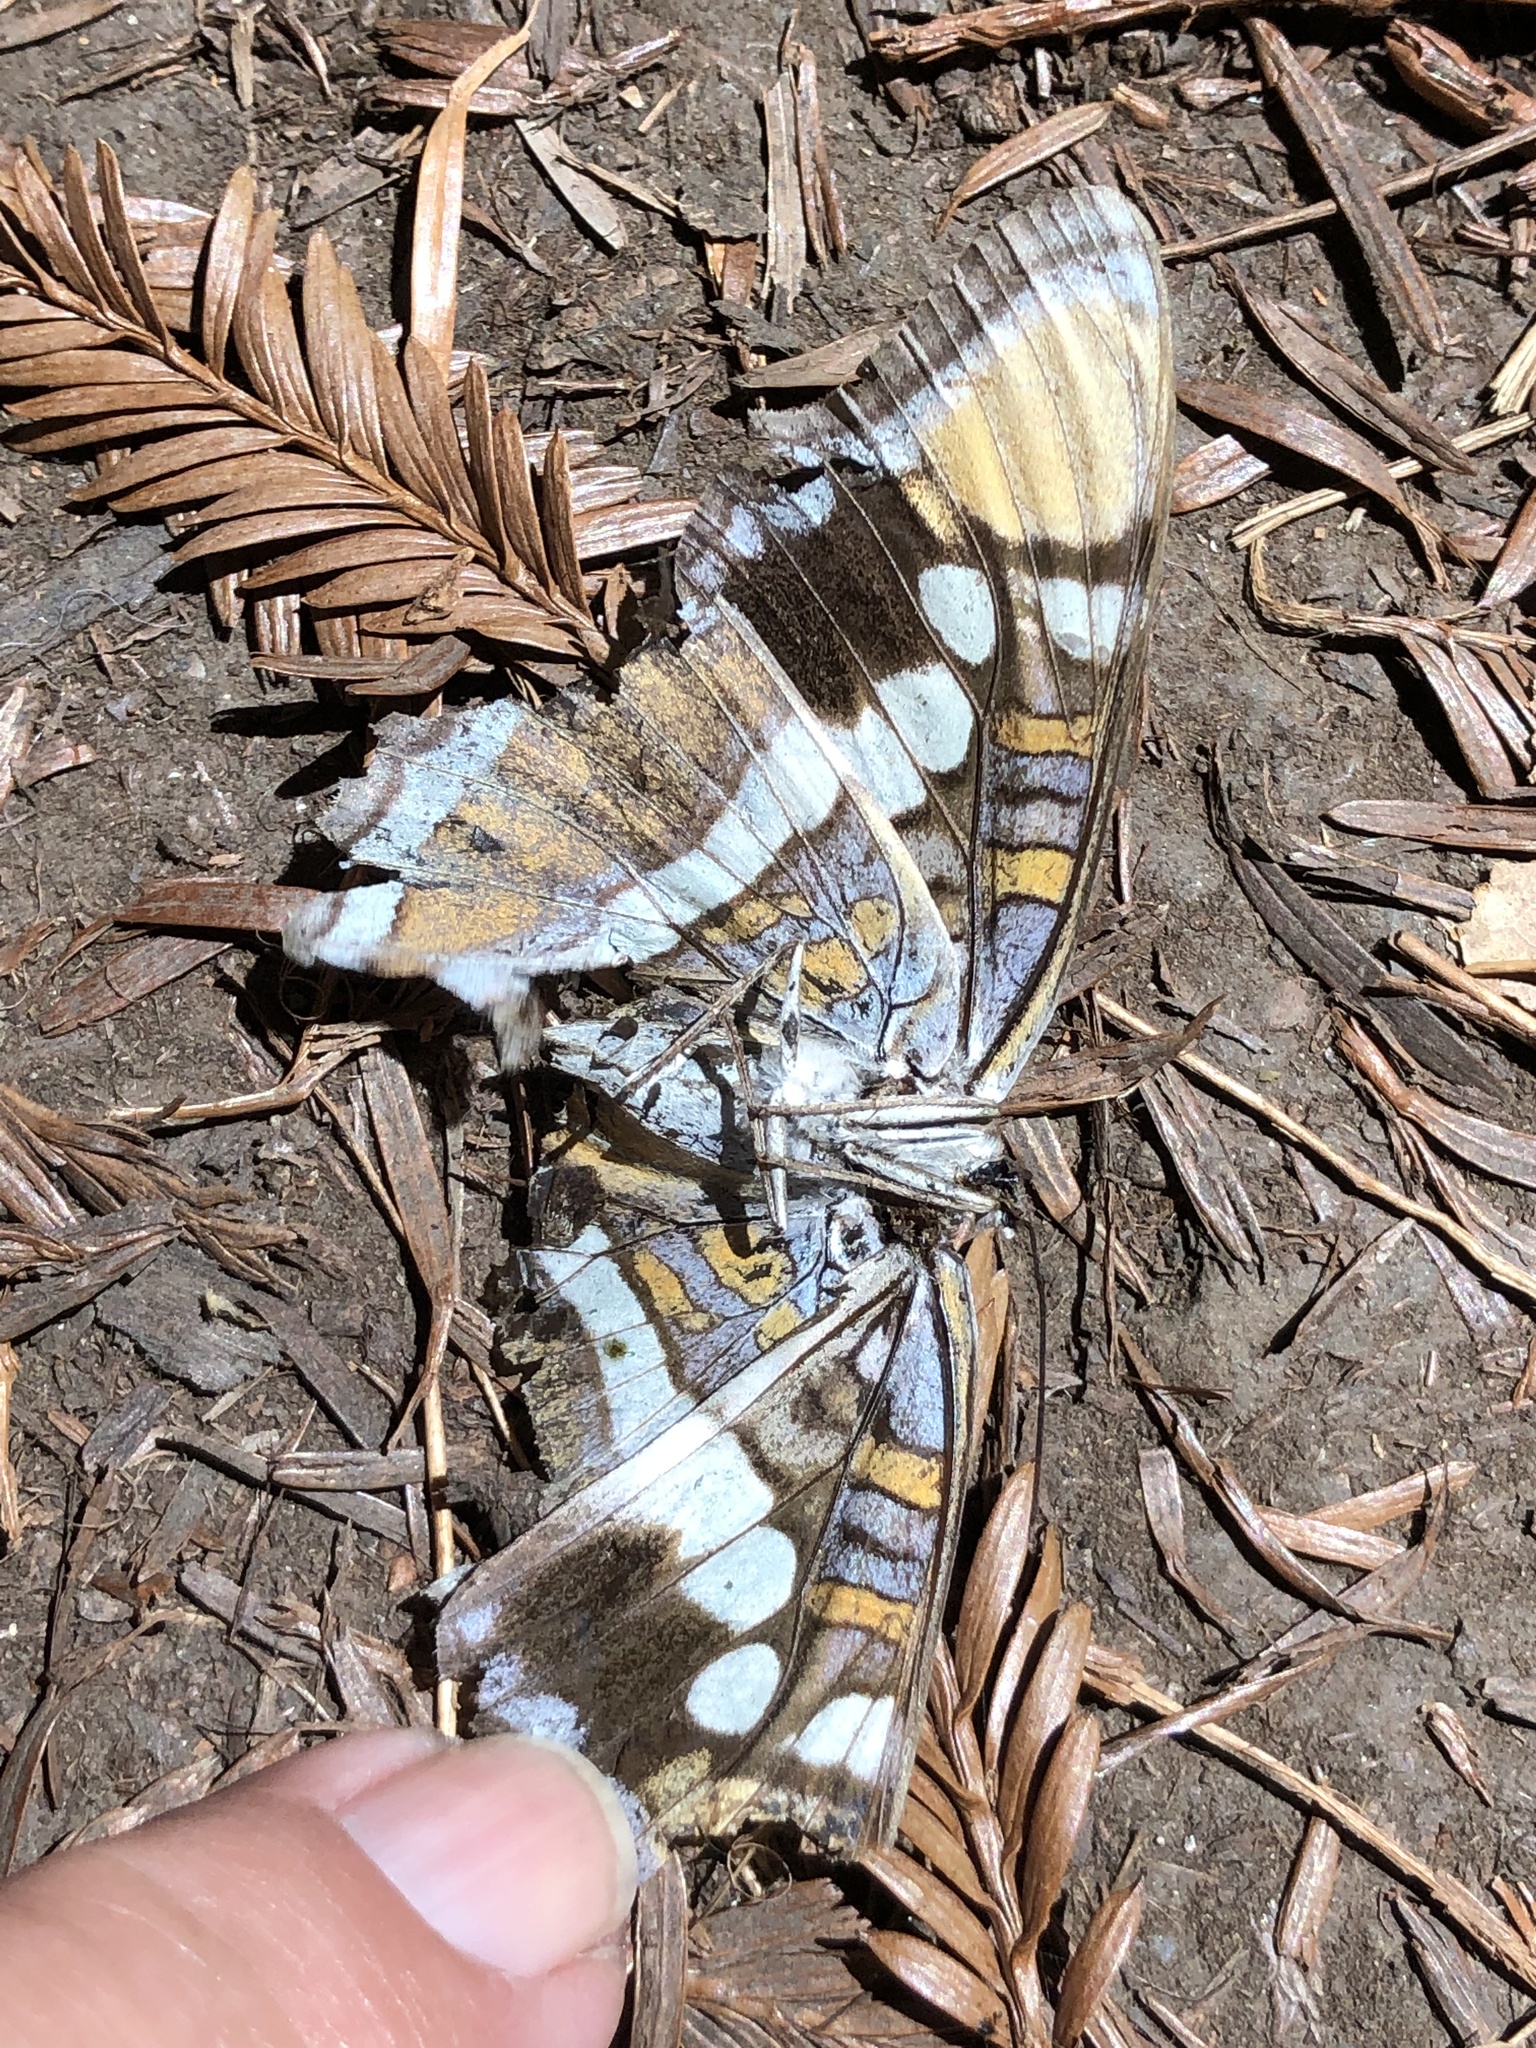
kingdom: Animalia
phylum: Arthropoda
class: Insecta
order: Lepidoptera
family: Nymphalidae
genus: Limenitis
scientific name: Limenitis bredowii
